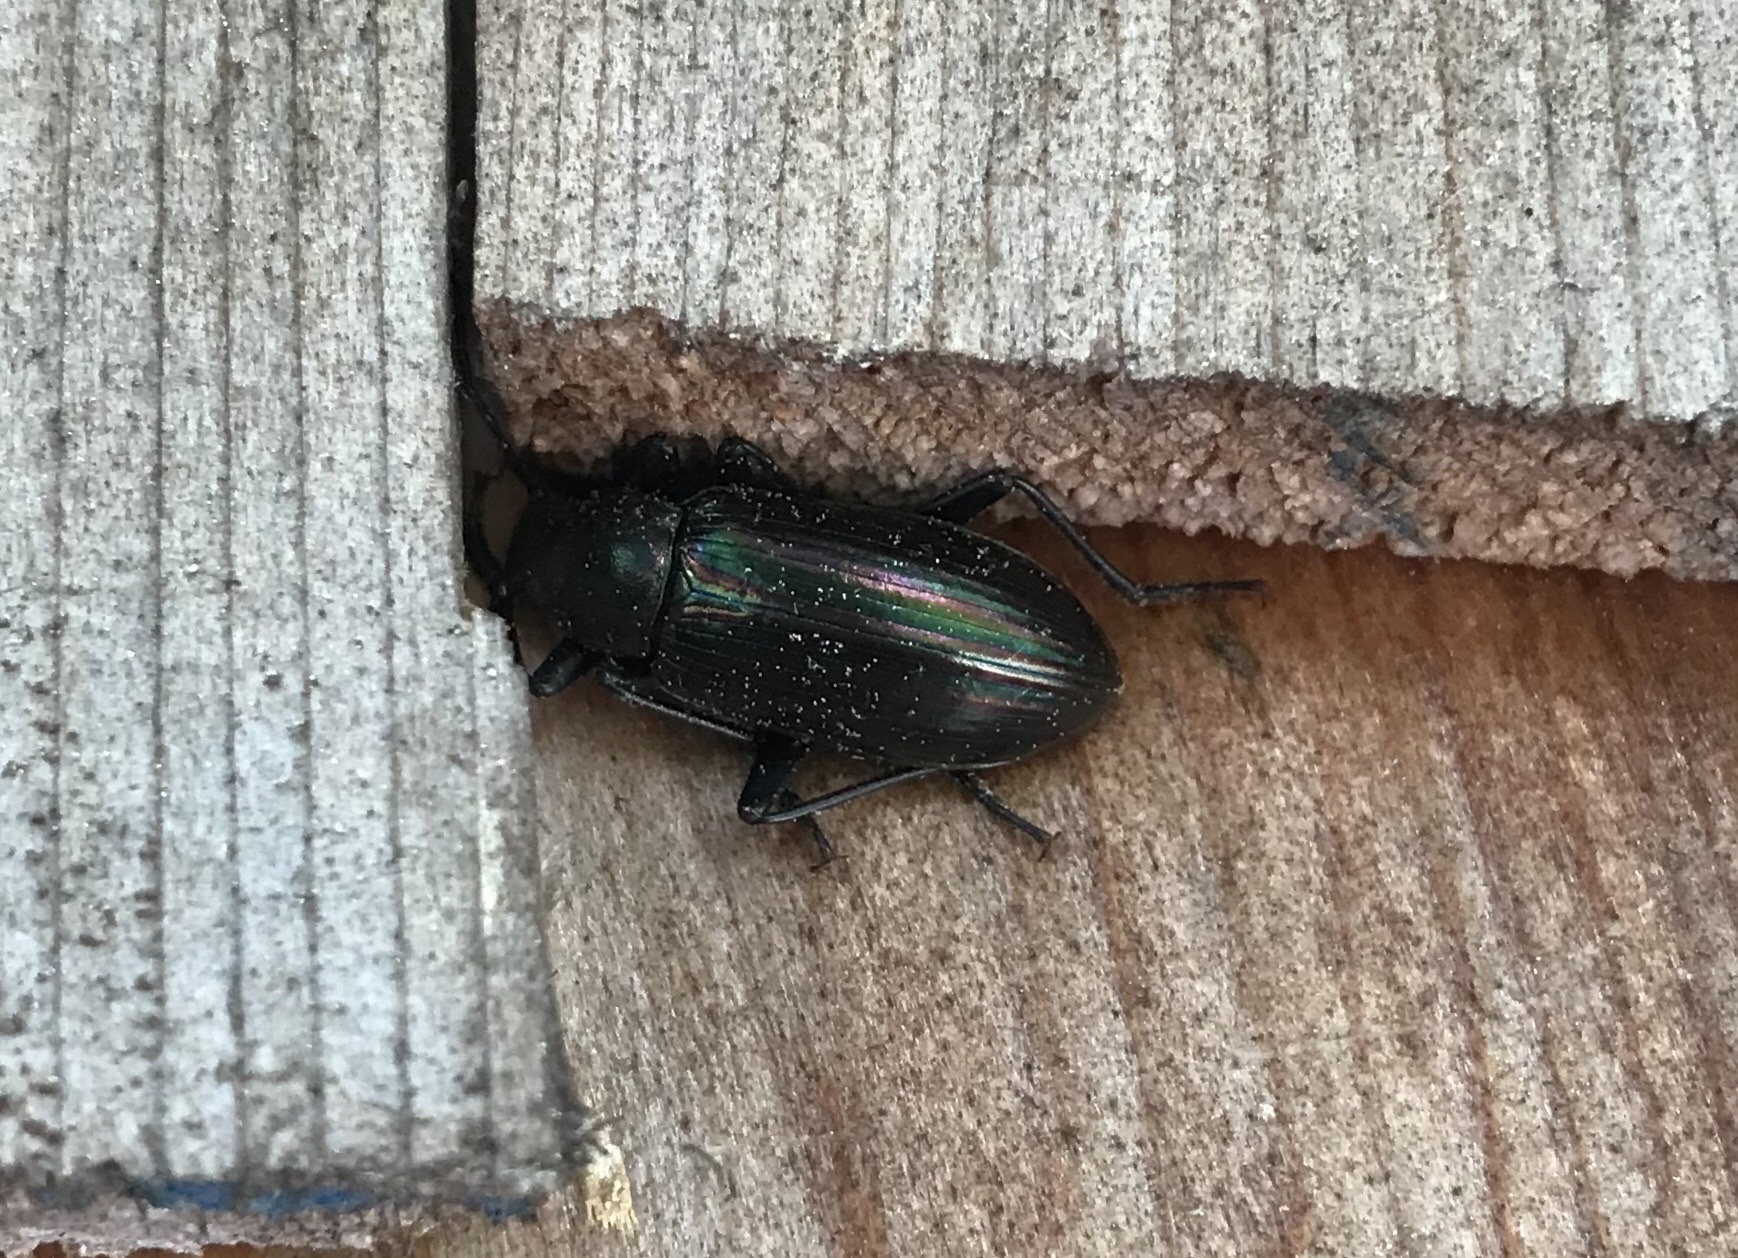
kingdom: Animalia
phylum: Arthropoda
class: Insecta
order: Coleoptera
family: Tenebrionidae
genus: Tarpela
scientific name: Tarpela micans
